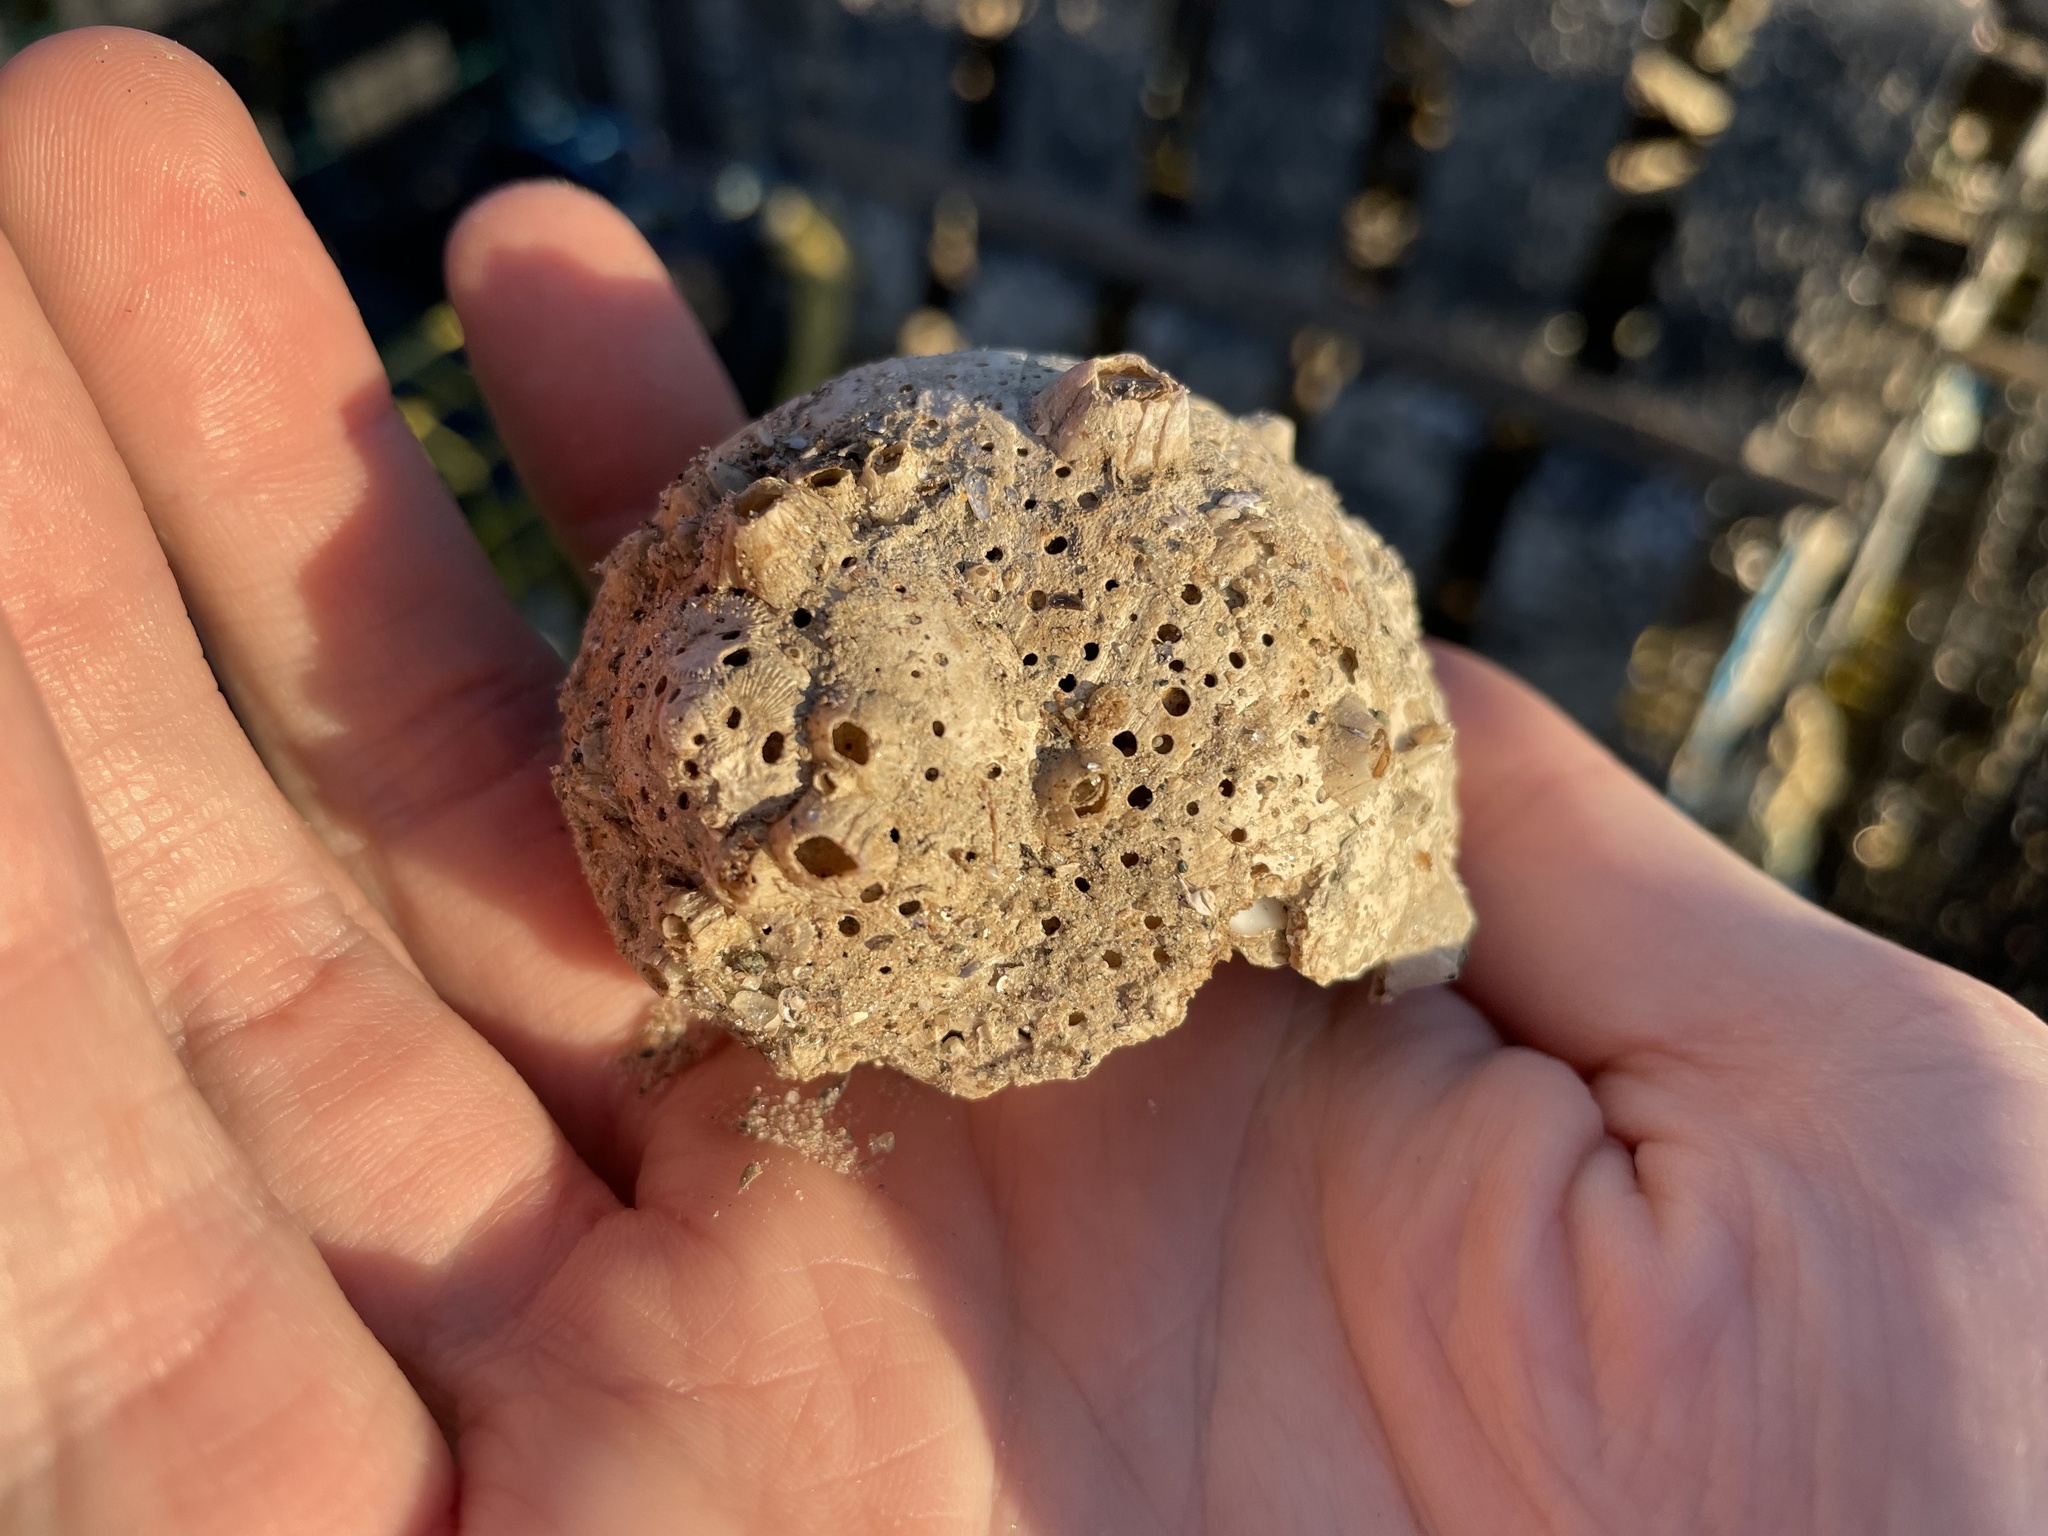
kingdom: Animalia
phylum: Mollusca
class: Gastropoda
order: Littorinimorpha
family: Naticidae
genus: Euspira
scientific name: Euspira heros
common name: Common northern moonsnail
